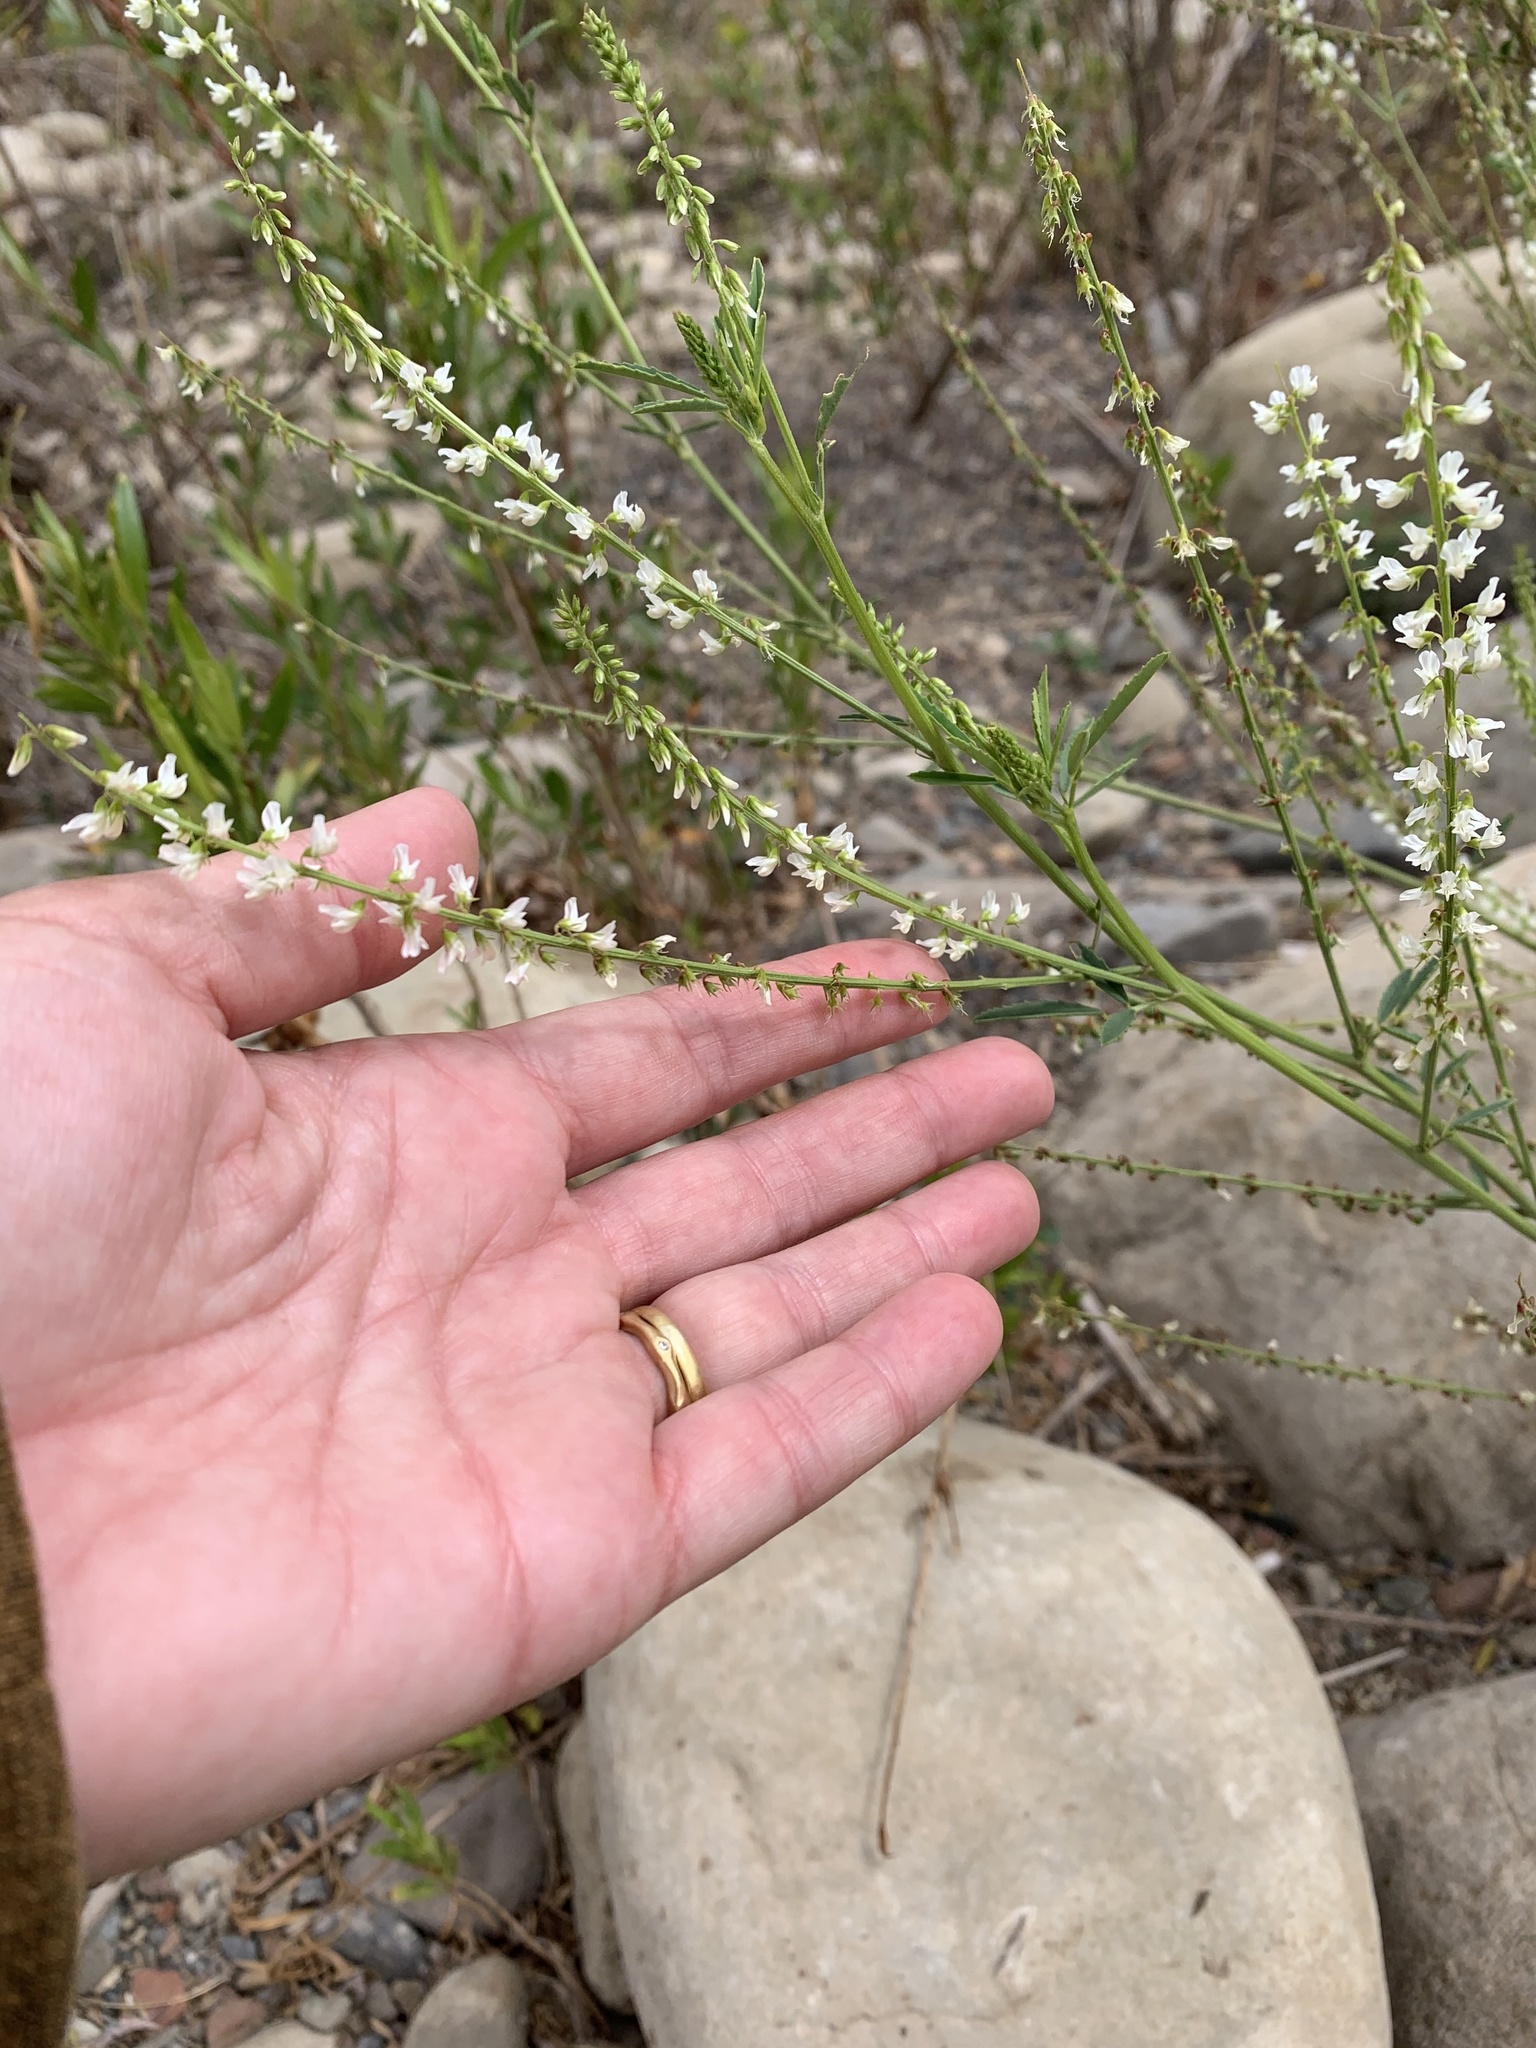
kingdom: Plantae
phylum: Tracheophyta
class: Magnoliopsida
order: Fabales
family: Fabaceae
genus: Melilotus
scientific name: Melilotus albus
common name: White melilot
